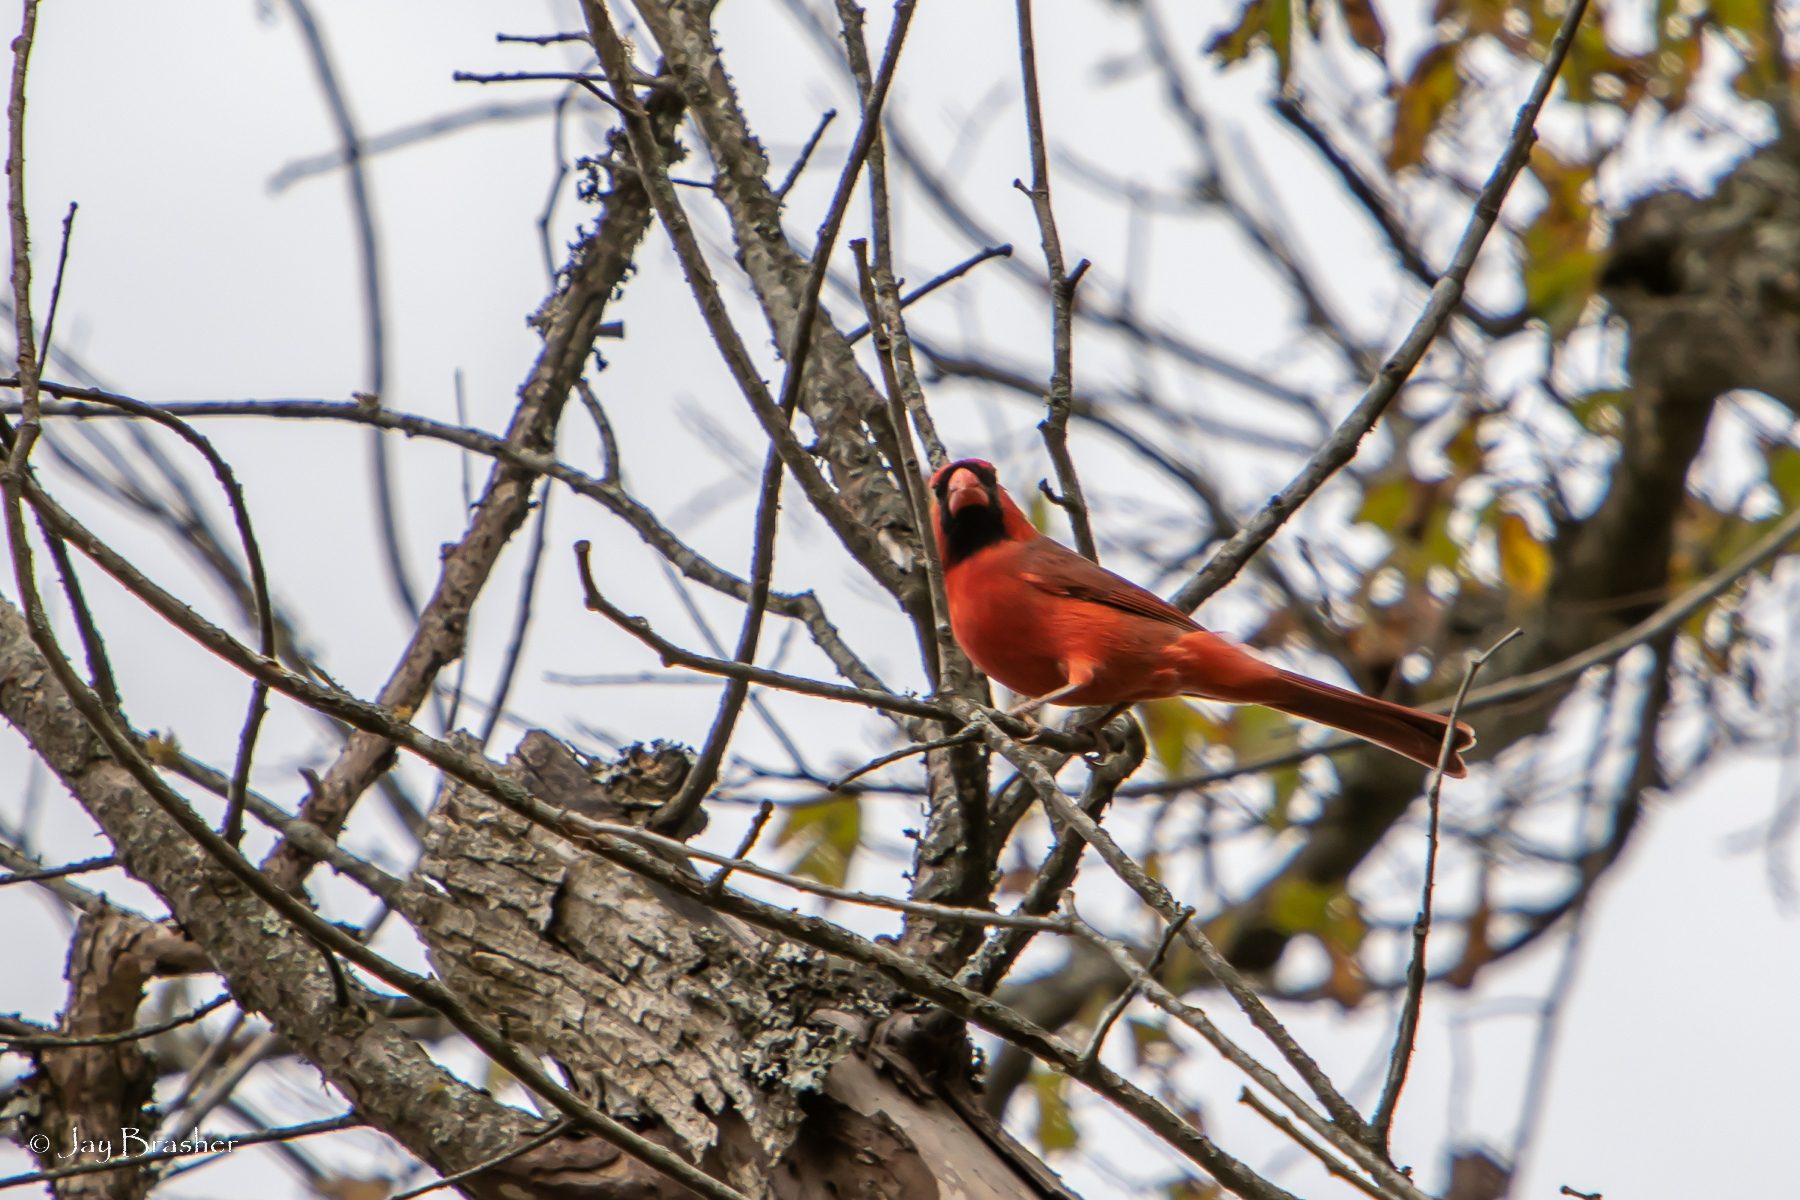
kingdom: Animalia
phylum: Chordata
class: Aves
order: Passeriformes
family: Cardinalidae
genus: Cardinalis
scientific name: Cardinalis cardinalis
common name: Northern cardinal
